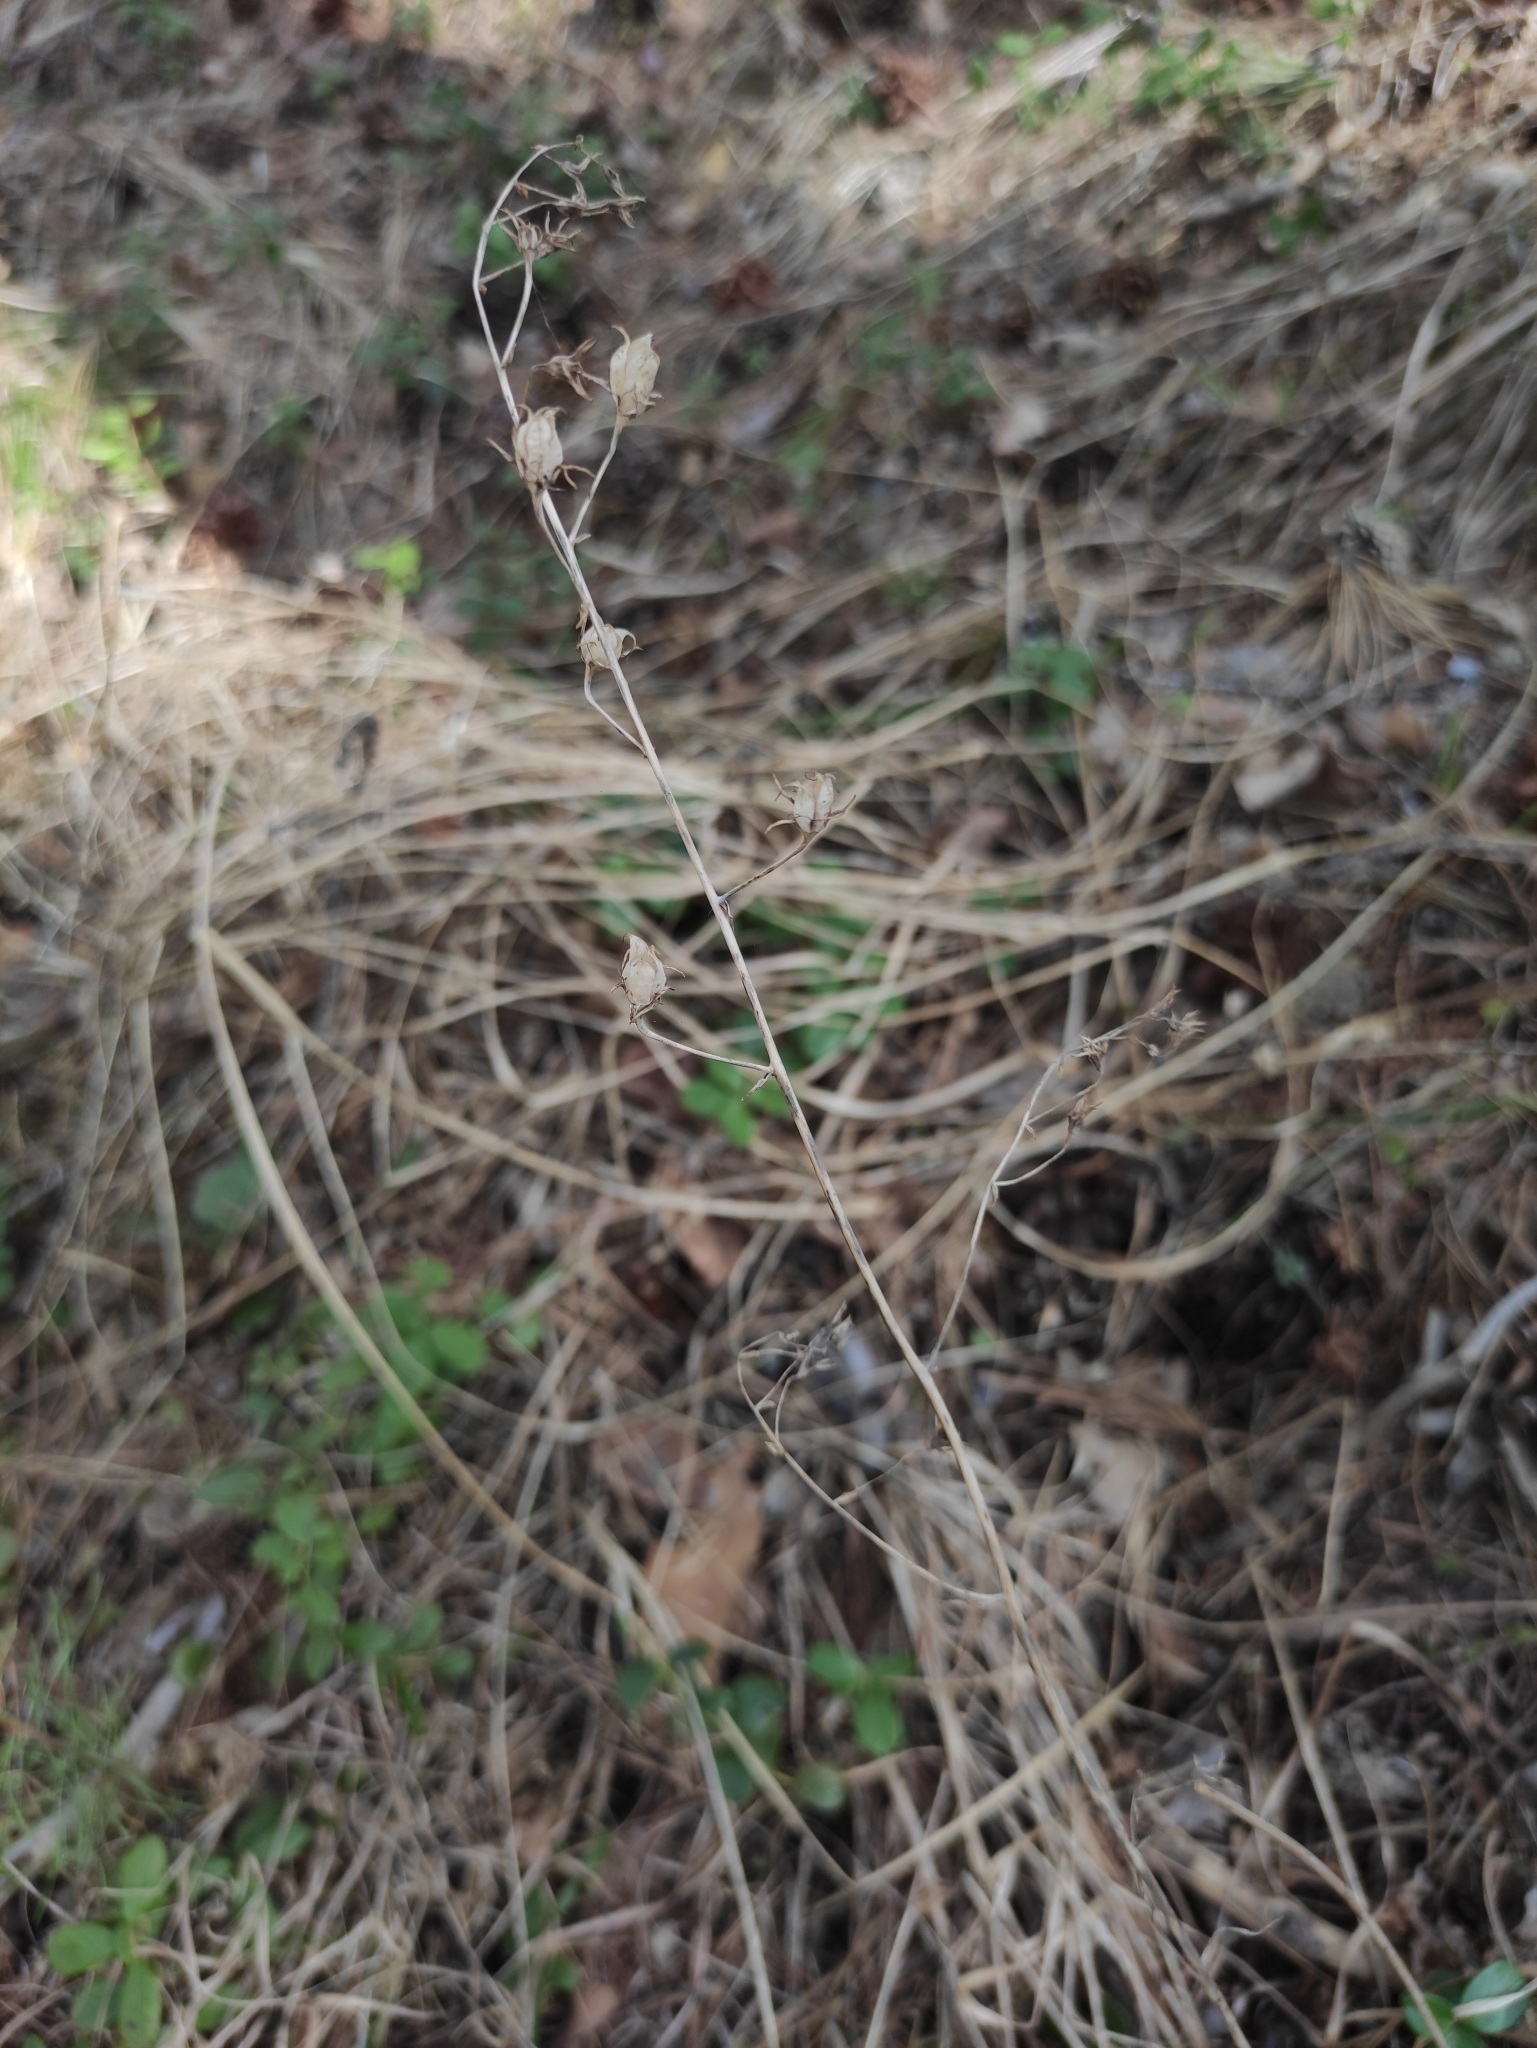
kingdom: Plantae
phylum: Tracheophyta
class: Liliopsida
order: Liliales
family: Melanthiaceae
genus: Anticlea
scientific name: Anticlea sibirica
